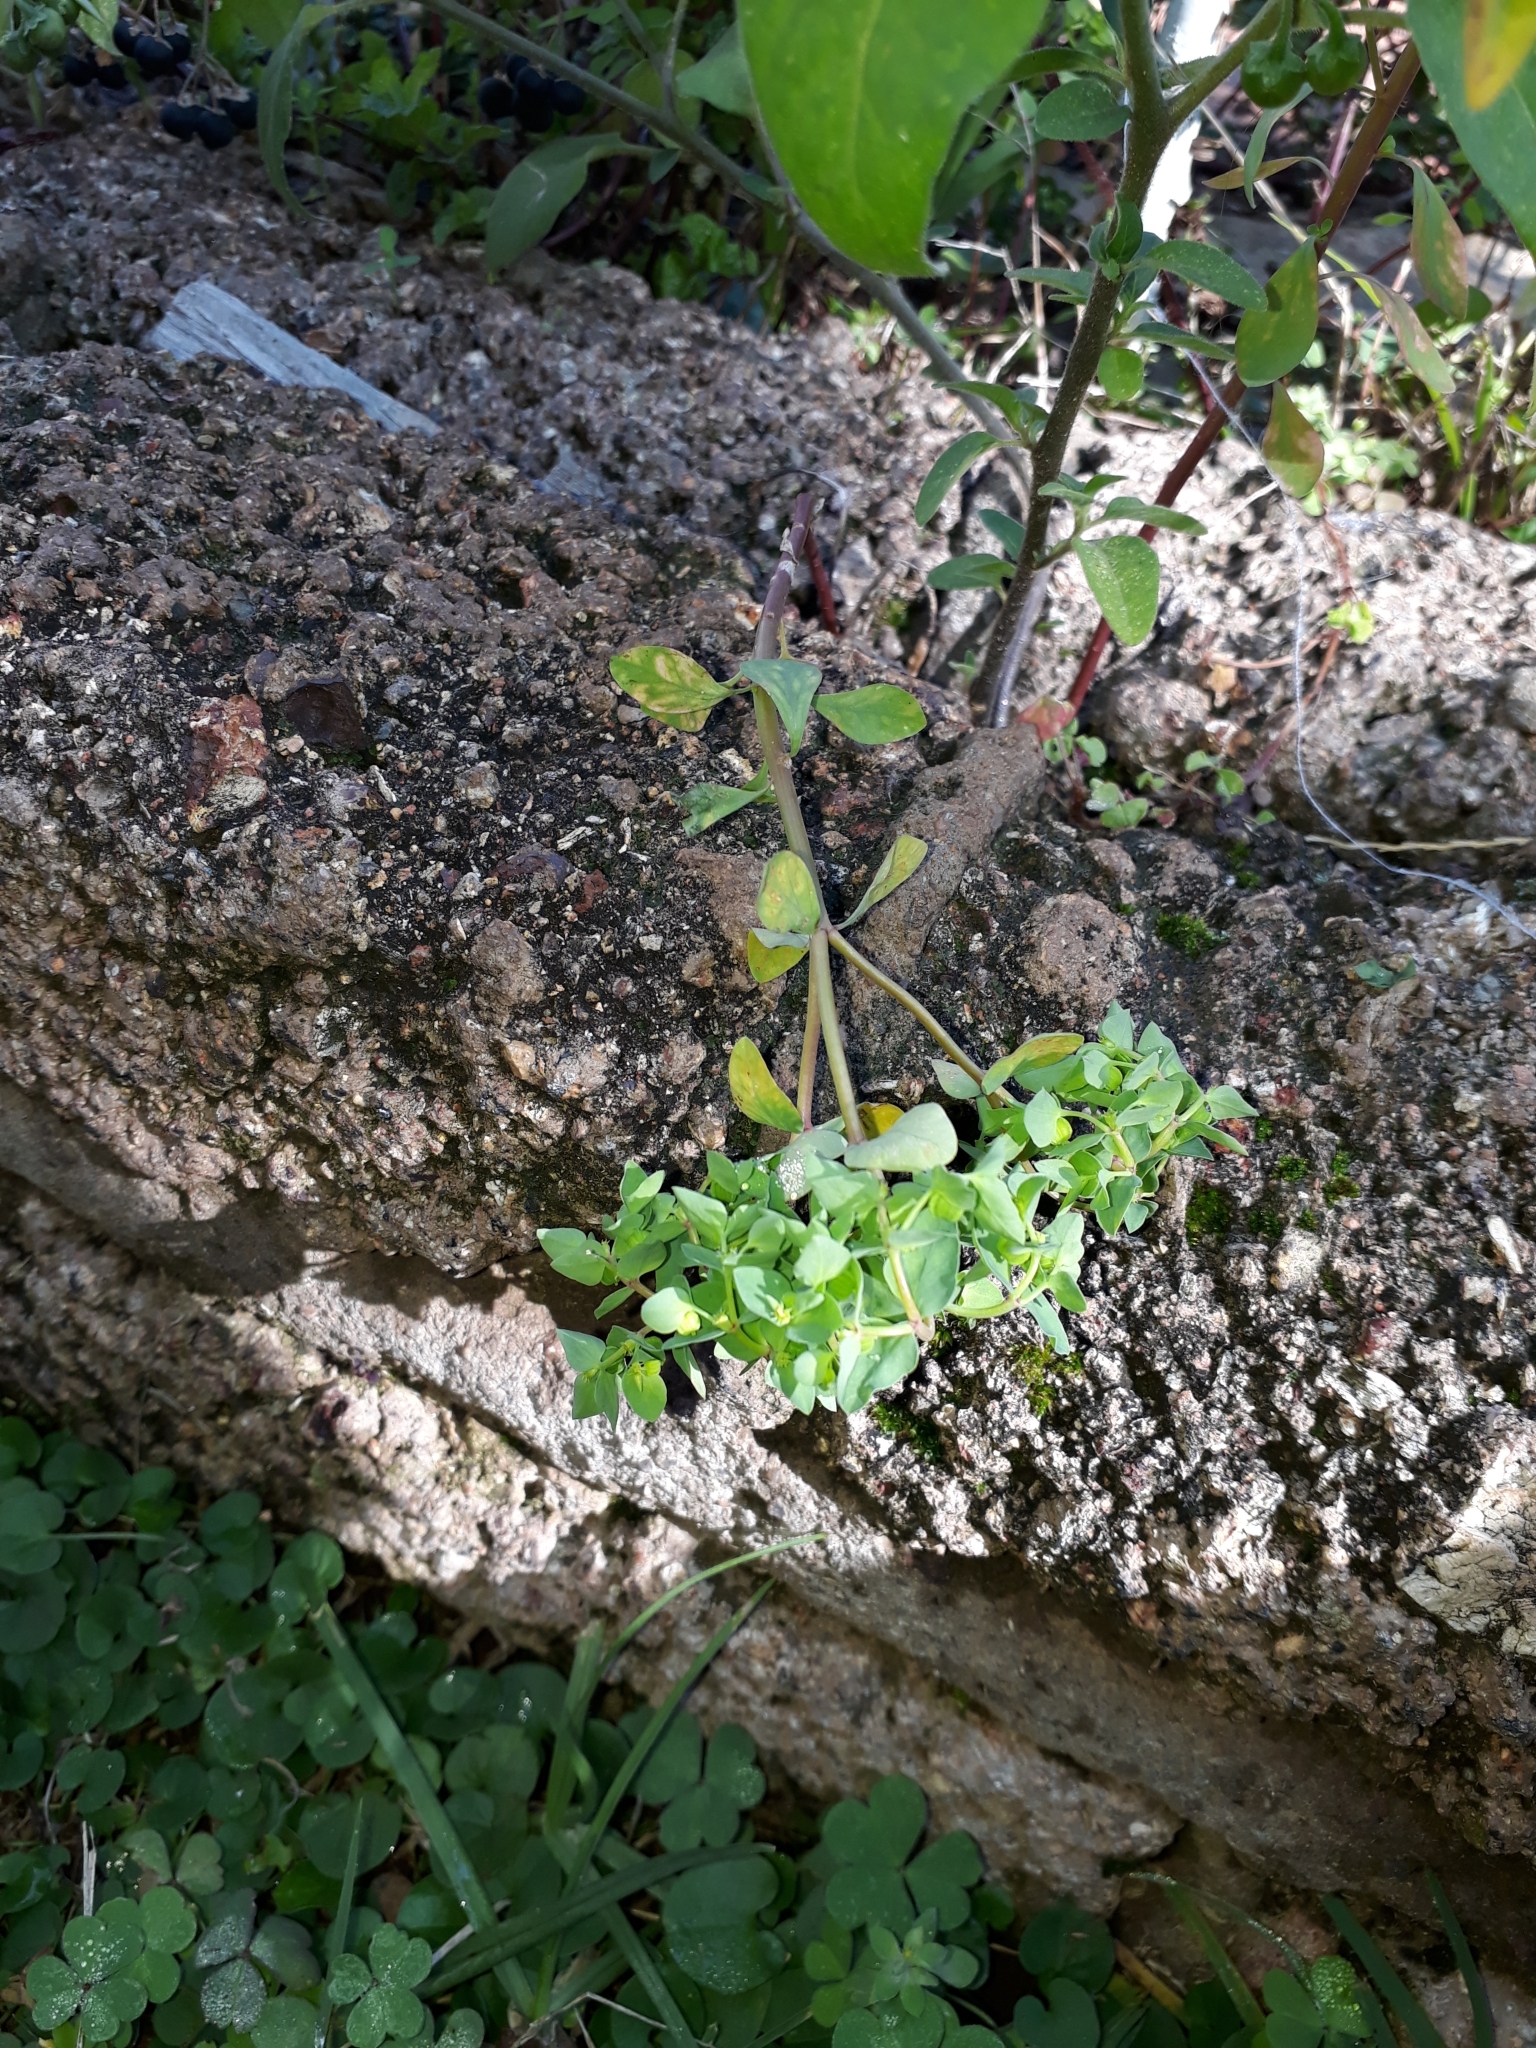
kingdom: Plantae
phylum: Tracheophyta
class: Magnoliopsida
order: Malpighiales
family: Euphorbiaceae
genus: Euphorbia
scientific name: Euphorbia peplus
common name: Petty spurge
